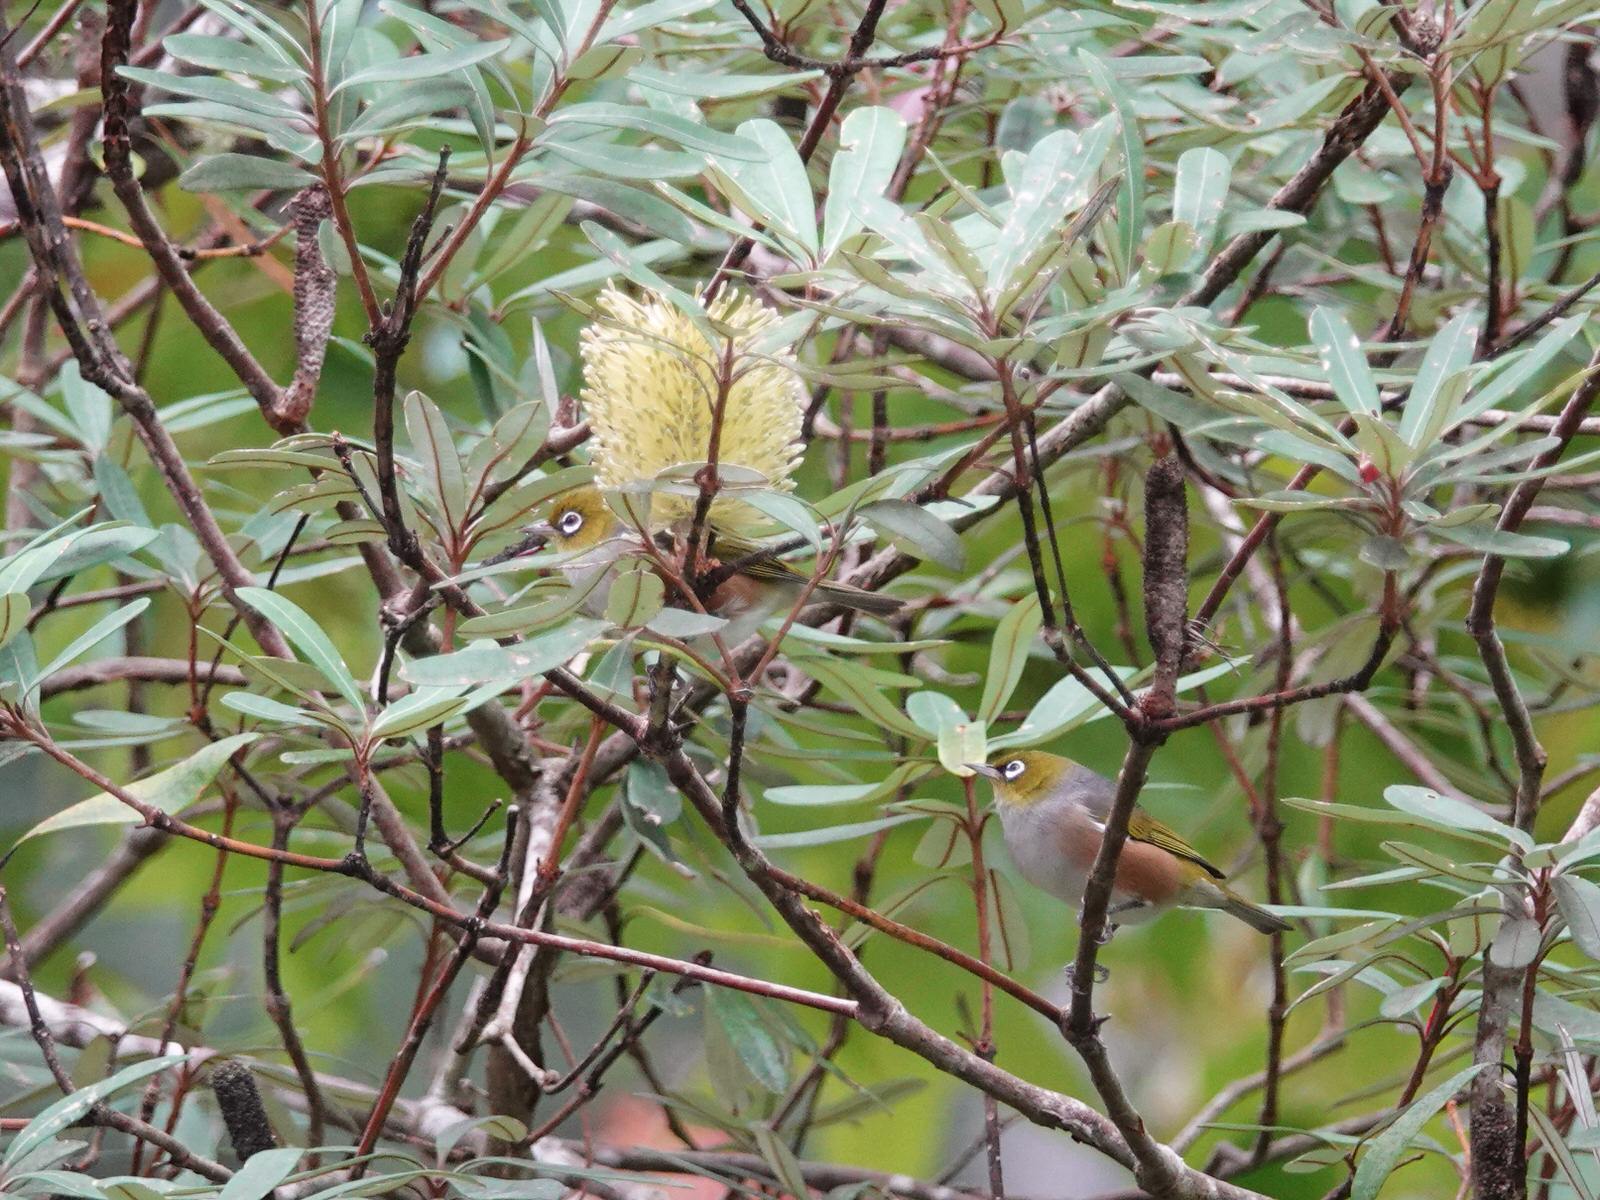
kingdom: Animalia
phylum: Chordata
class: Aves
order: Passeriformes
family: Zosteropidae
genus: Zosterops
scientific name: Zosterops lateralis
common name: Silvereye
